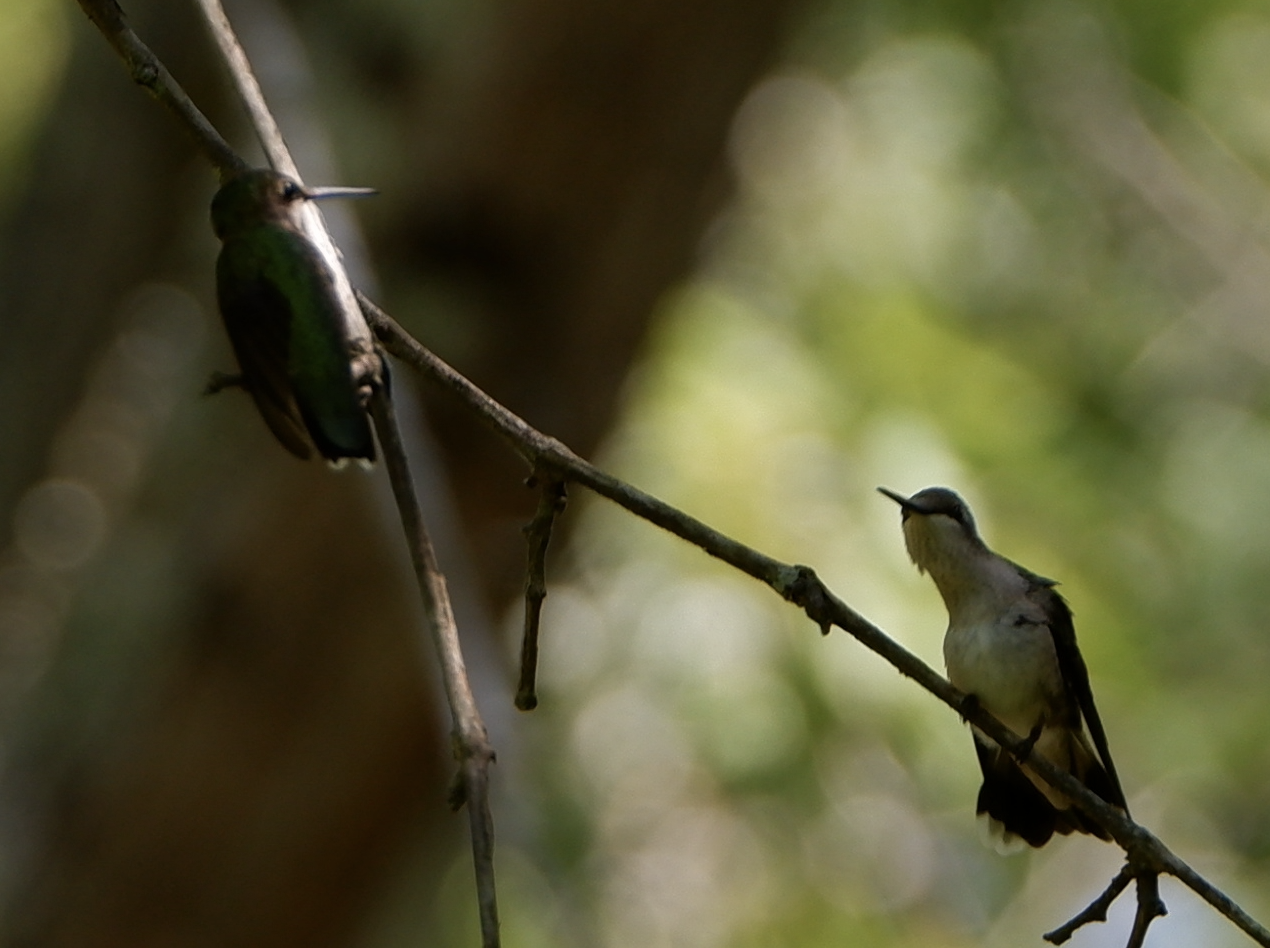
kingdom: Animalia
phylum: Chordata
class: Aves
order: Apodiformes
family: Trochilidae
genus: Archilochus
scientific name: Archilochus colubris
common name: Ruby-throated hummingbird
